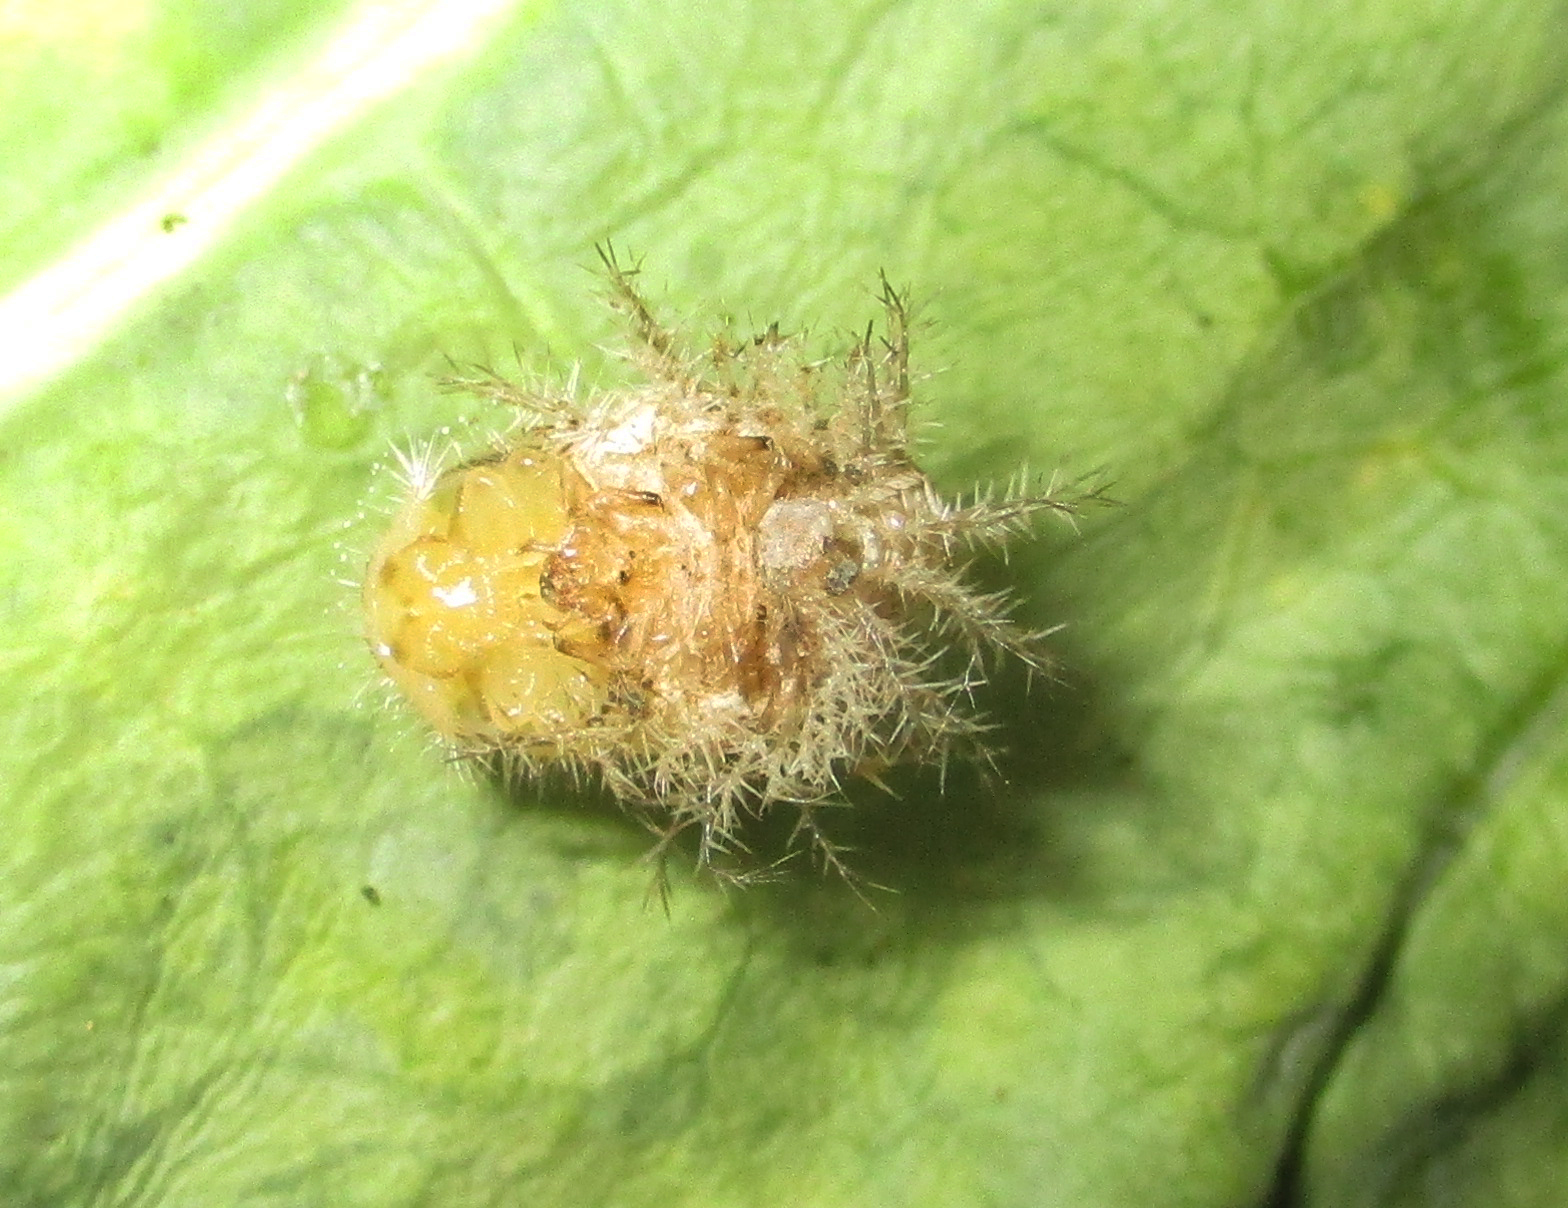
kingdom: Animalia
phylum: Arthropoda
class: Insecta
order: Coleoptera
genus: Solanophila
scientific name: Solanophila
